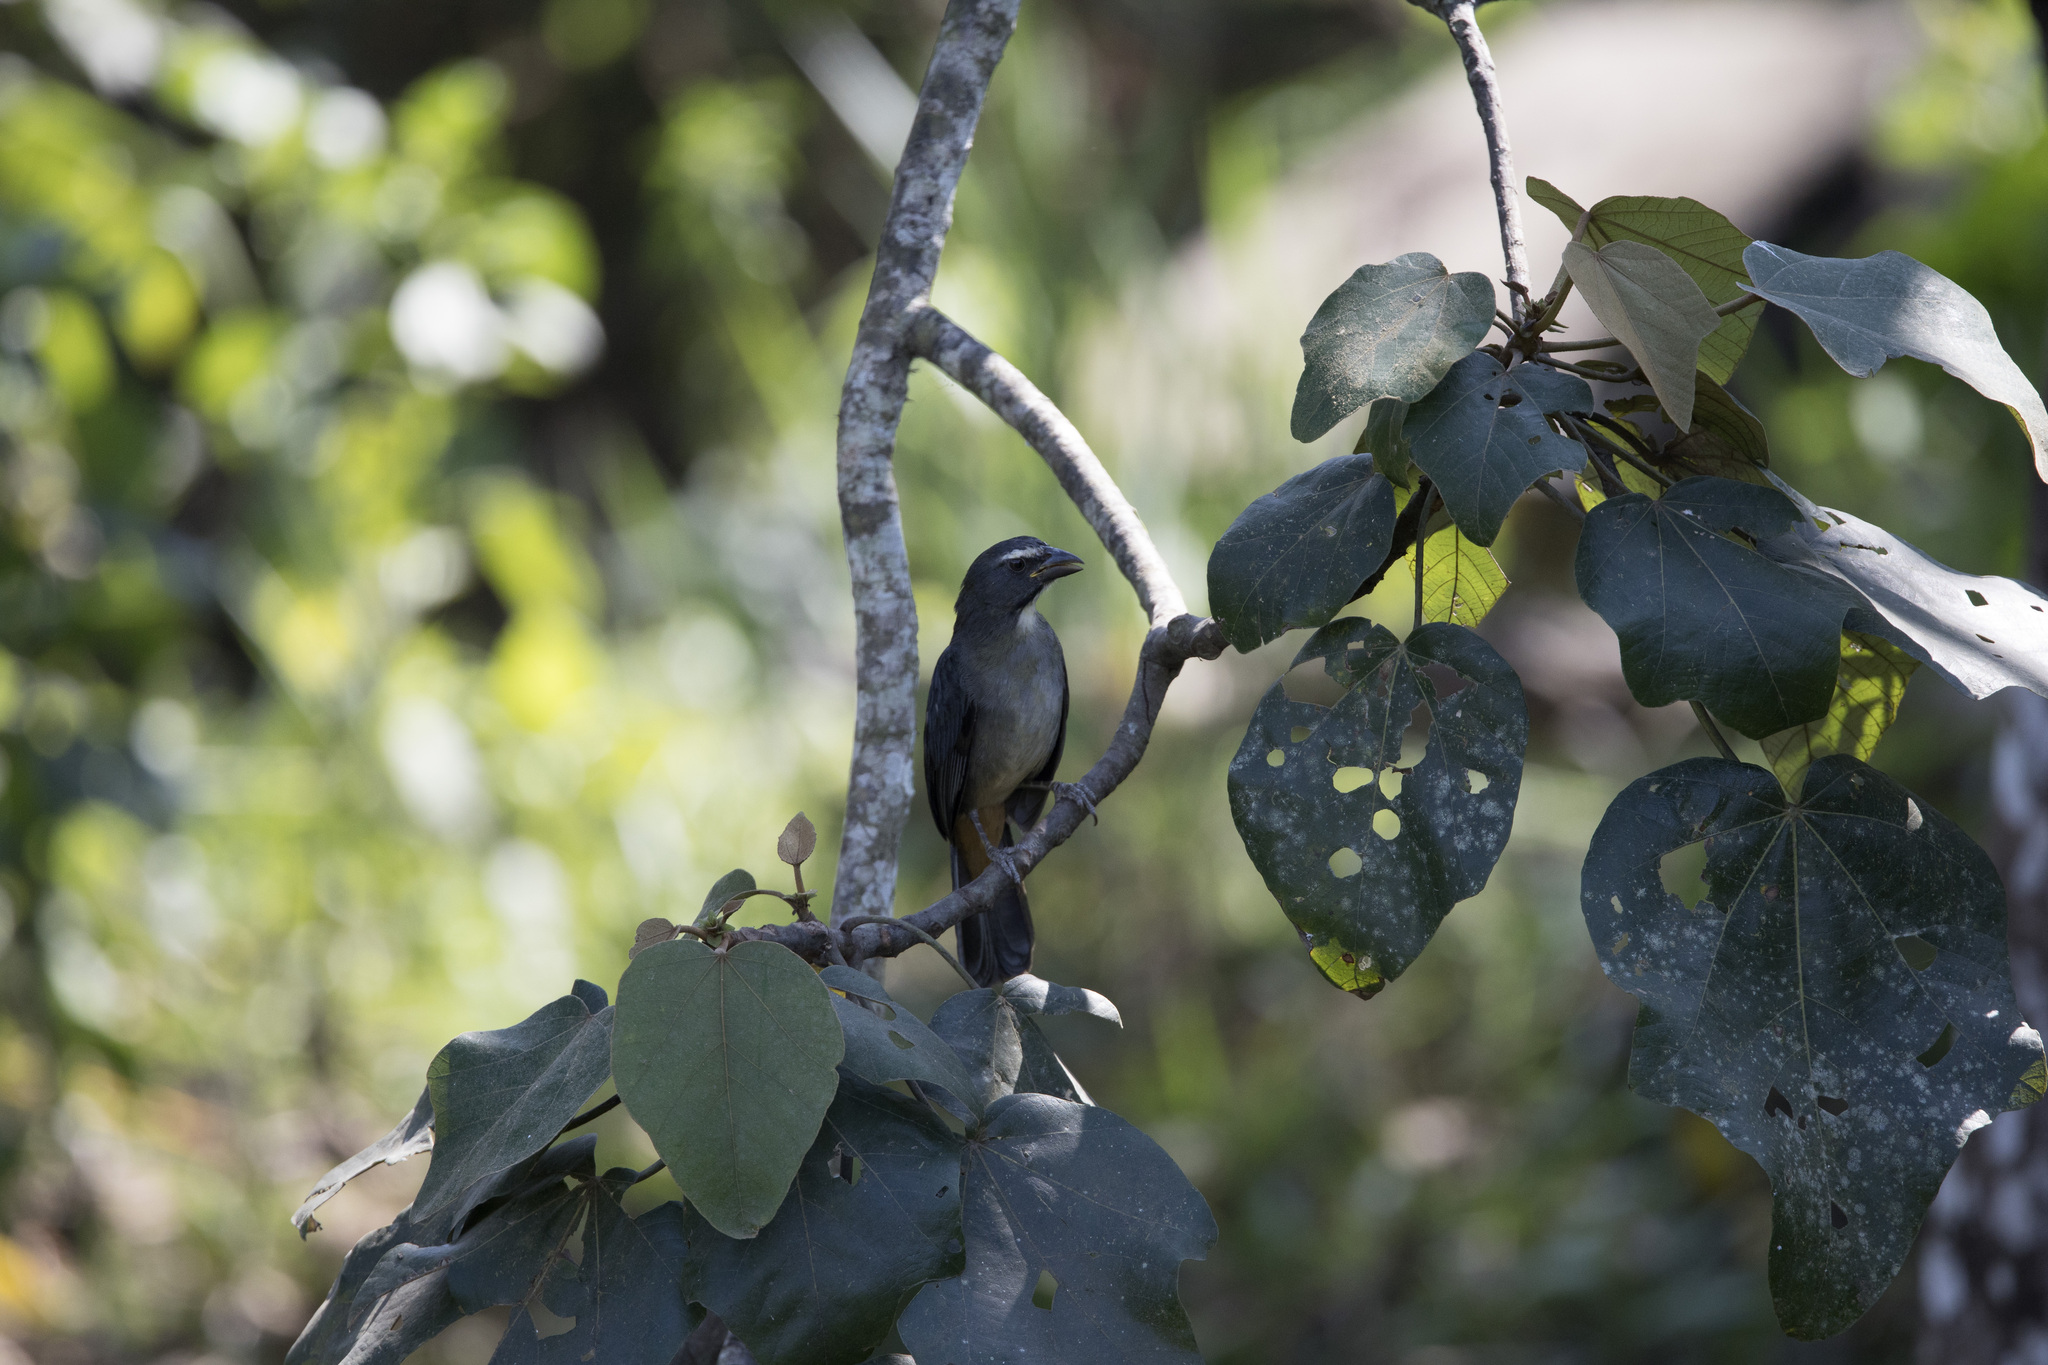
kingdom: Animalia
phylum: Chordata
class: Aves
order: Passeriformes
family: Thraupidae
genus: Saltator
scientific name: Saltator coerulescens
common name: Grayish saltator
